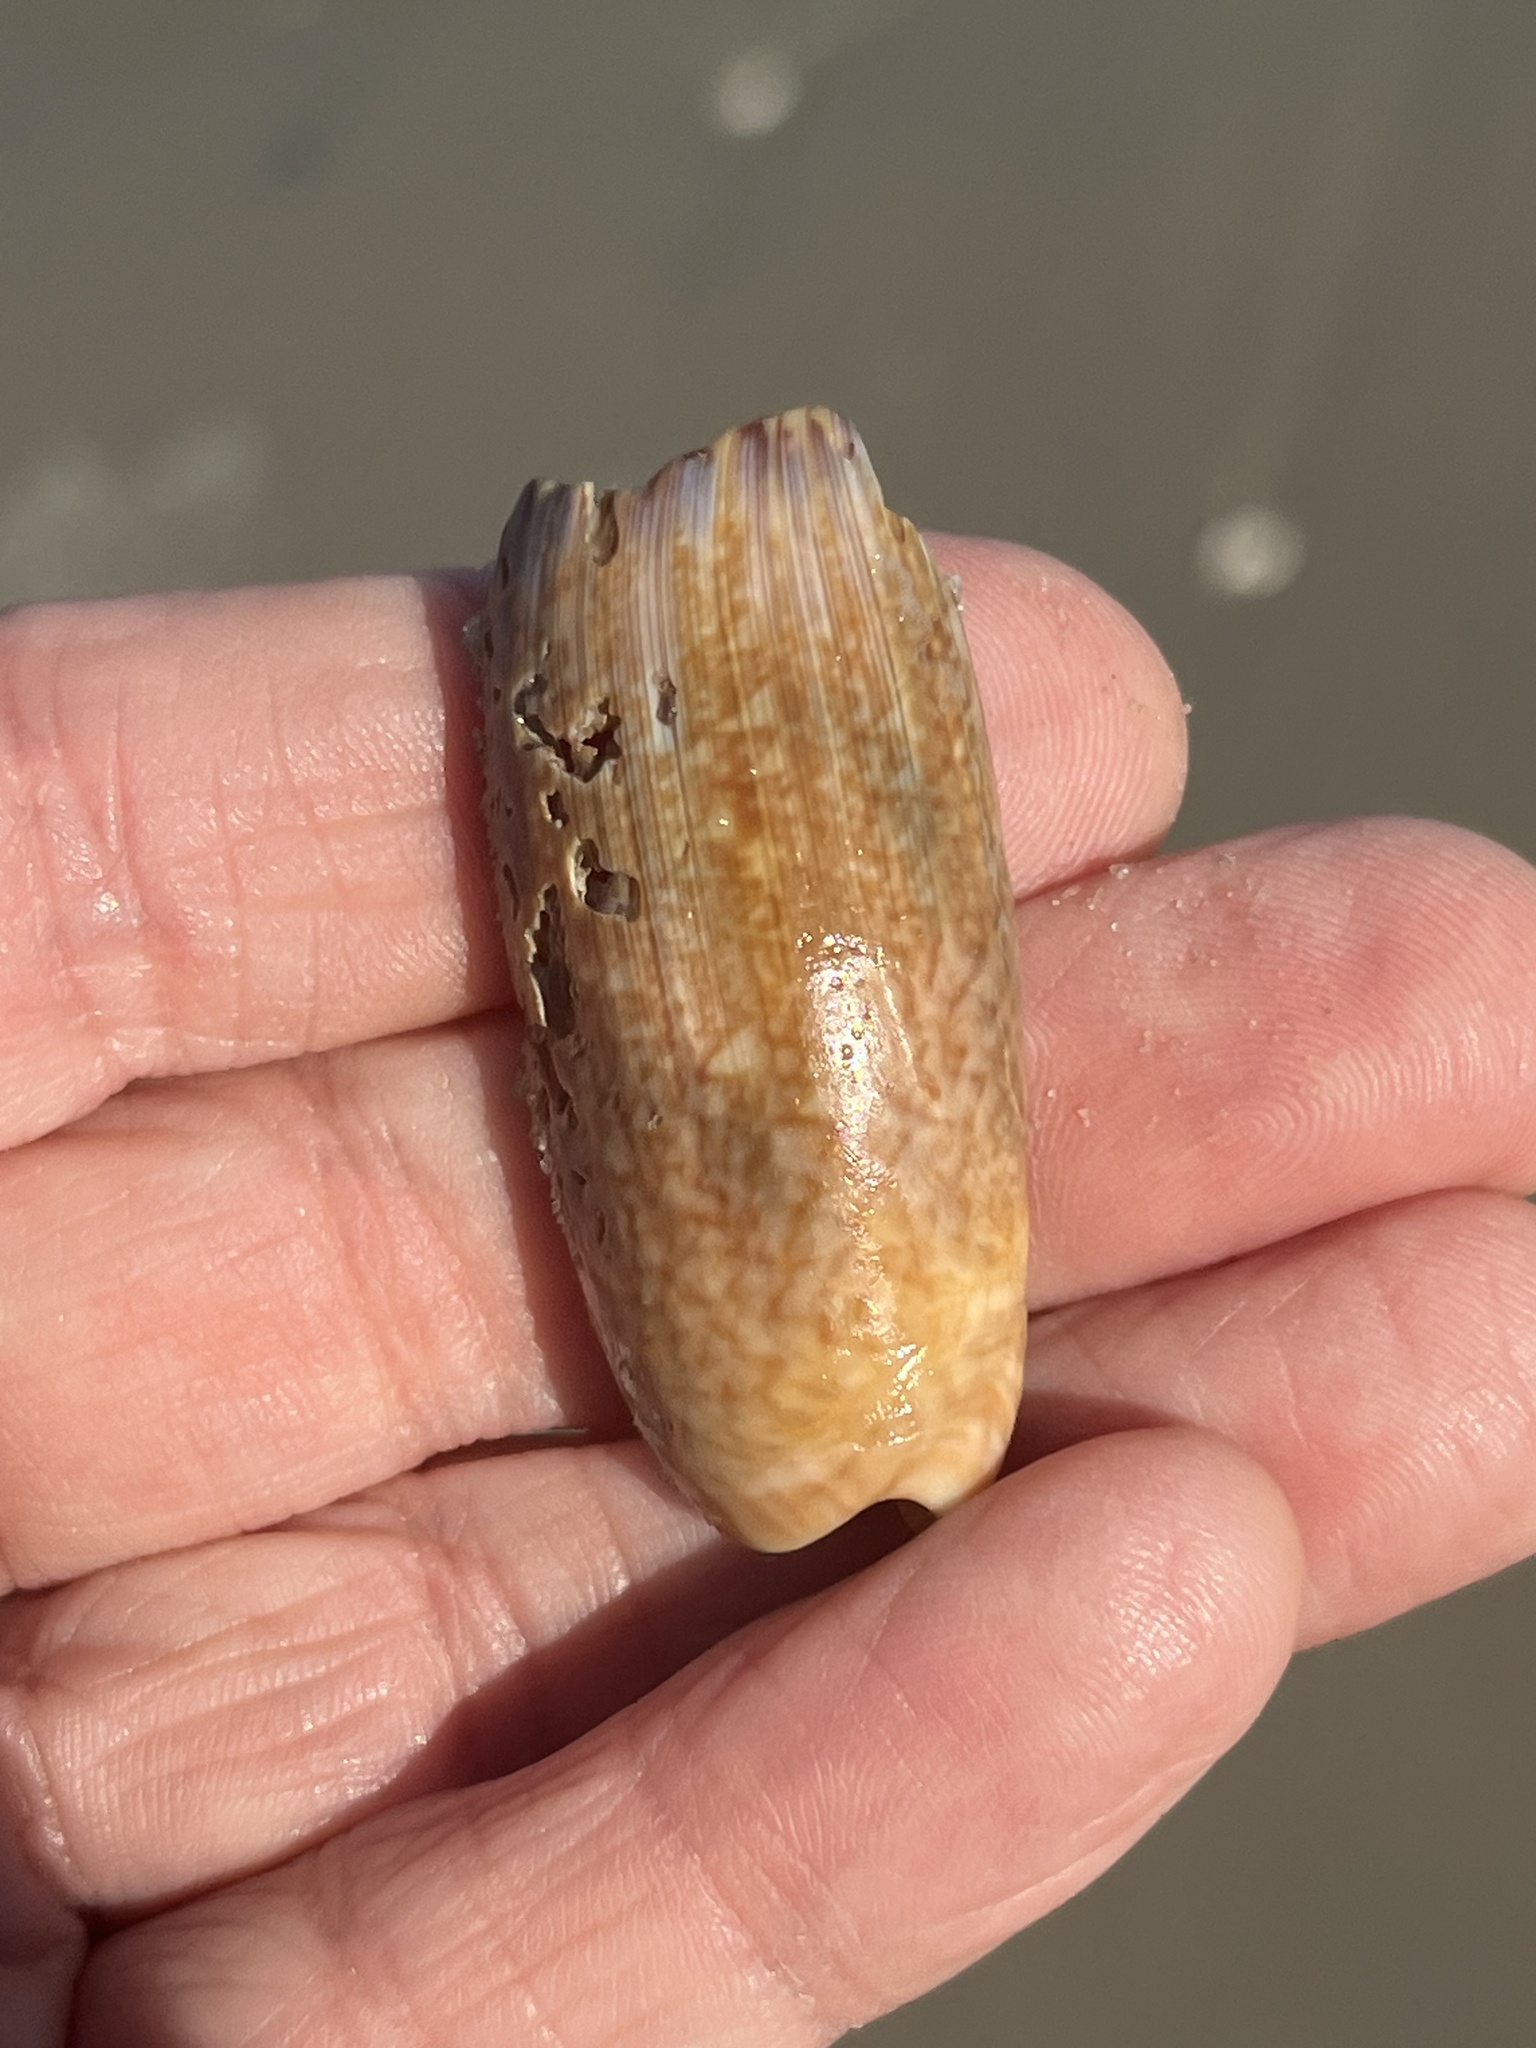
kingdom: Animalia
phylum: Mollusca
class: Gastropoda
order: Neogastropoda
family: Olividae
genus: Oliva
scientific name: Oliva sayana
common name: Lettered olive
